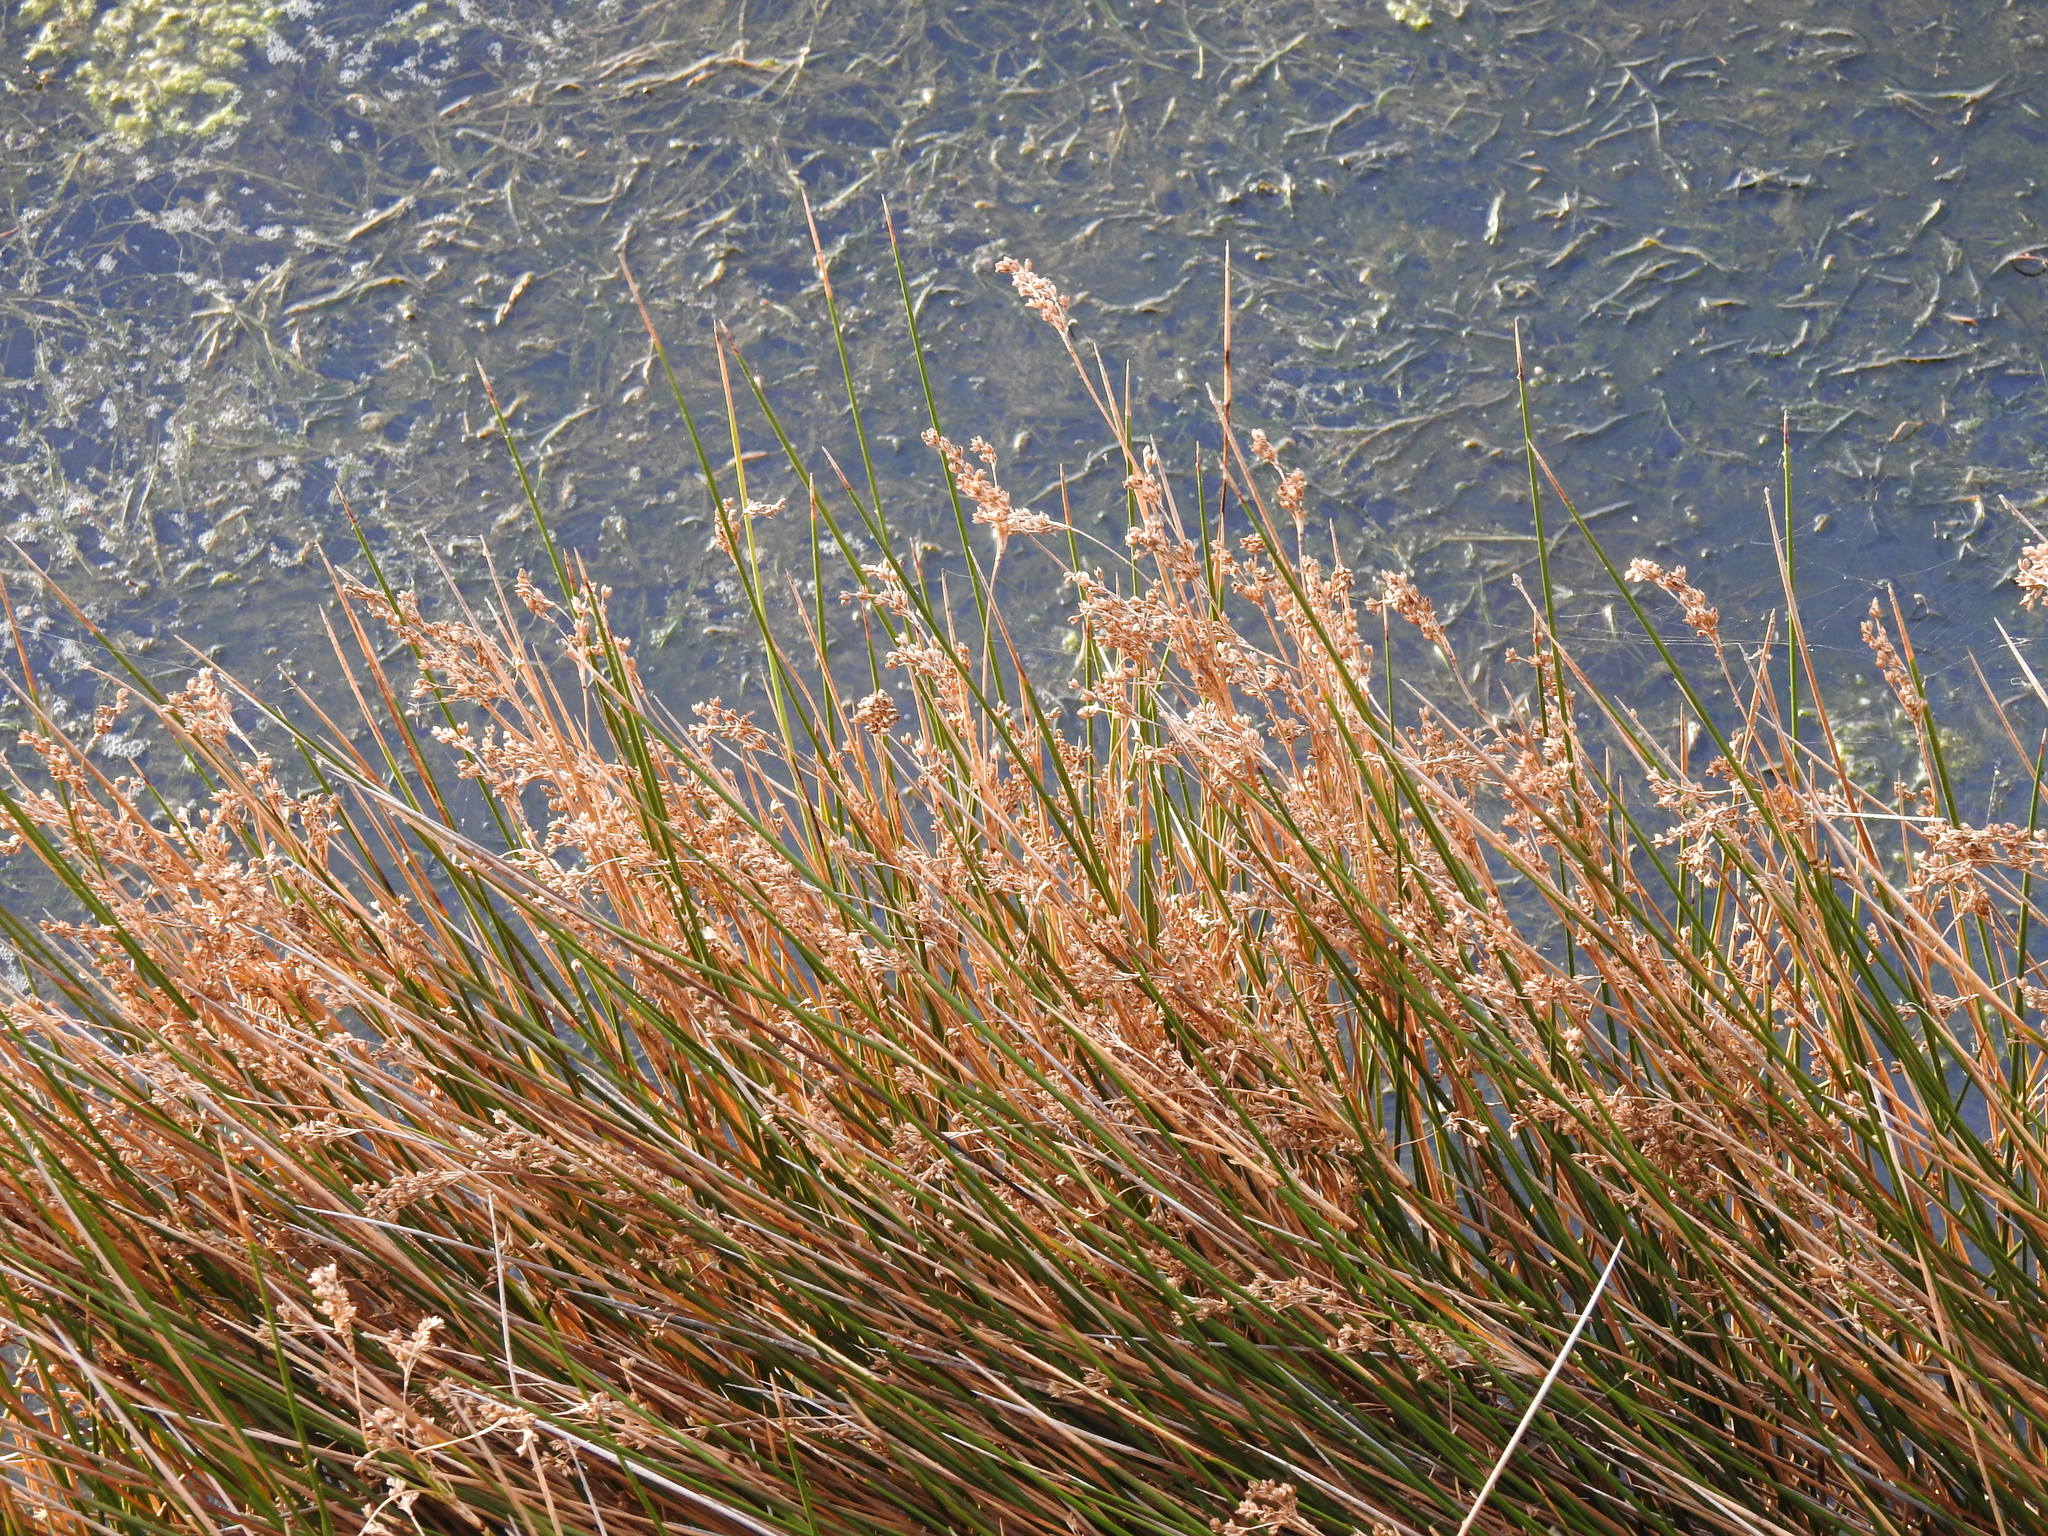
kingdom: Plantae
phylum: Tracheophyta
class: Liliopsida
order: Poales
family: Juncaceae
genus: Juncus
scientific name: Juncus maritimus
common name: Sea rush
